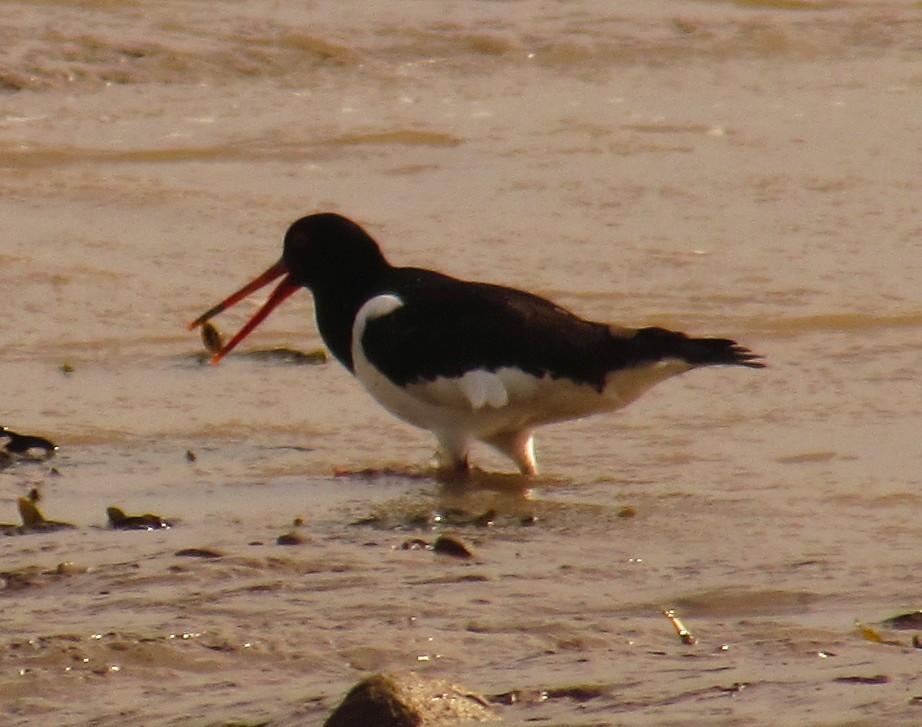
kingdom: Animalia
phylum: Chordata
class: Aves
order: Charadriiformes
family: Haematopodidae
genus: Haematopus
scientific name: Haematopus ostralegus
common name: Eurasian oystercatcher
